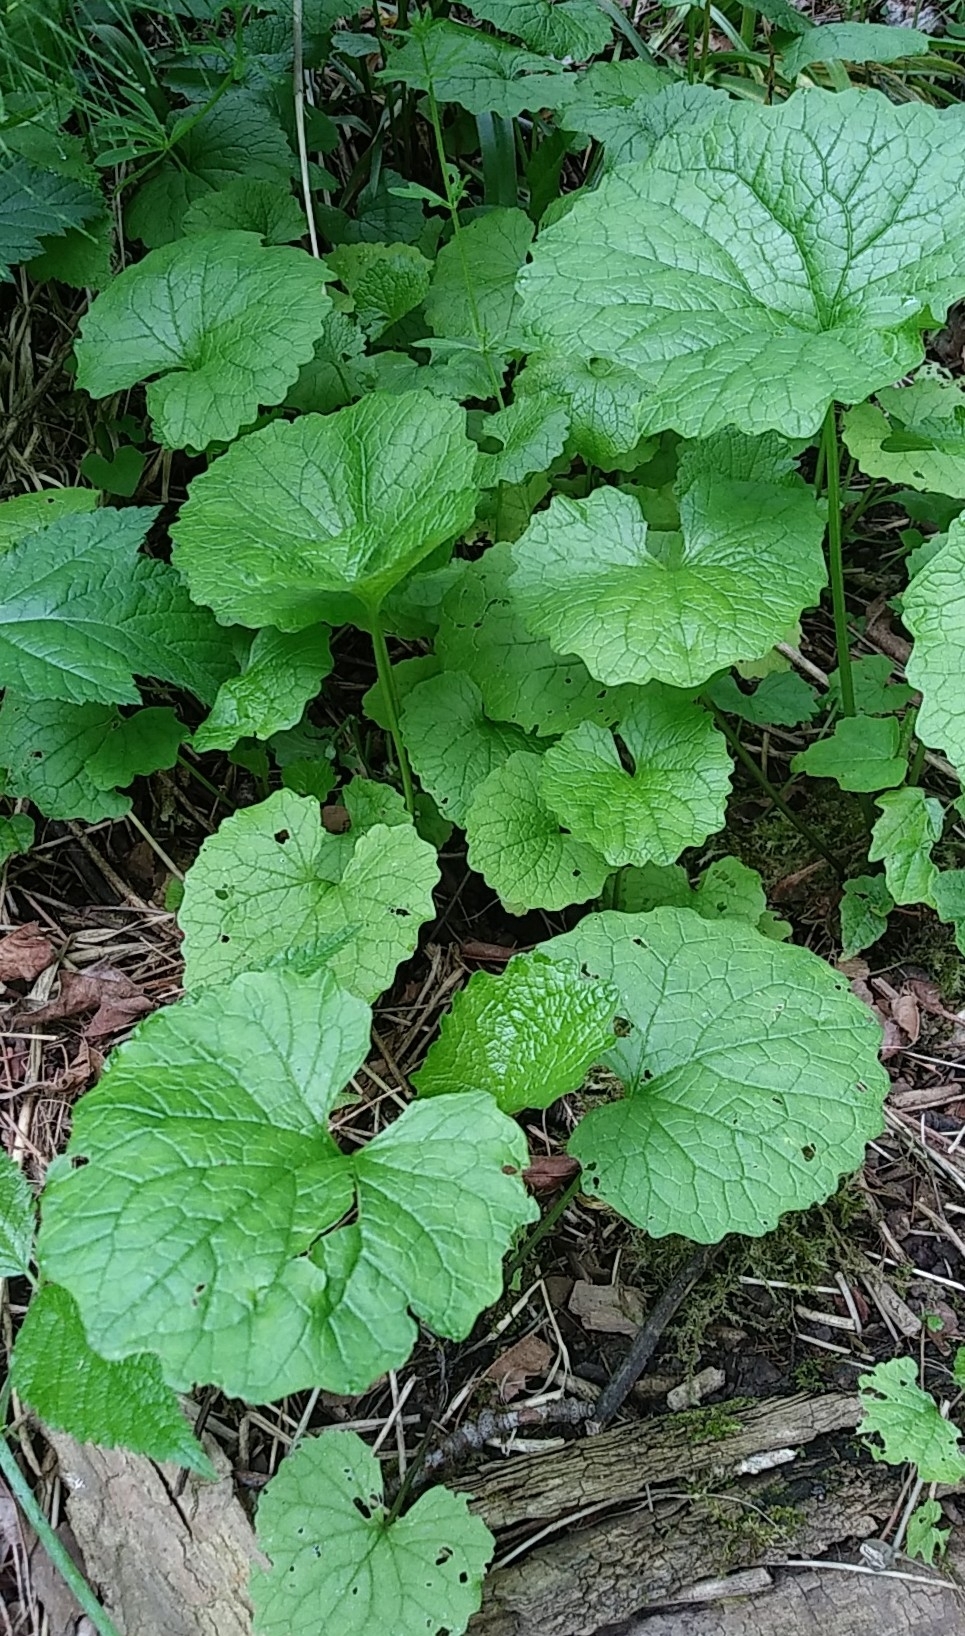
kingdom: Plantae
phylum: Tracheophyta
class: Magnoliopsida
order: Brassicales
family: Brassicaceae
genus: Alliaria
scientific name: Alliaria petiolata
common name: Garlic mustard
